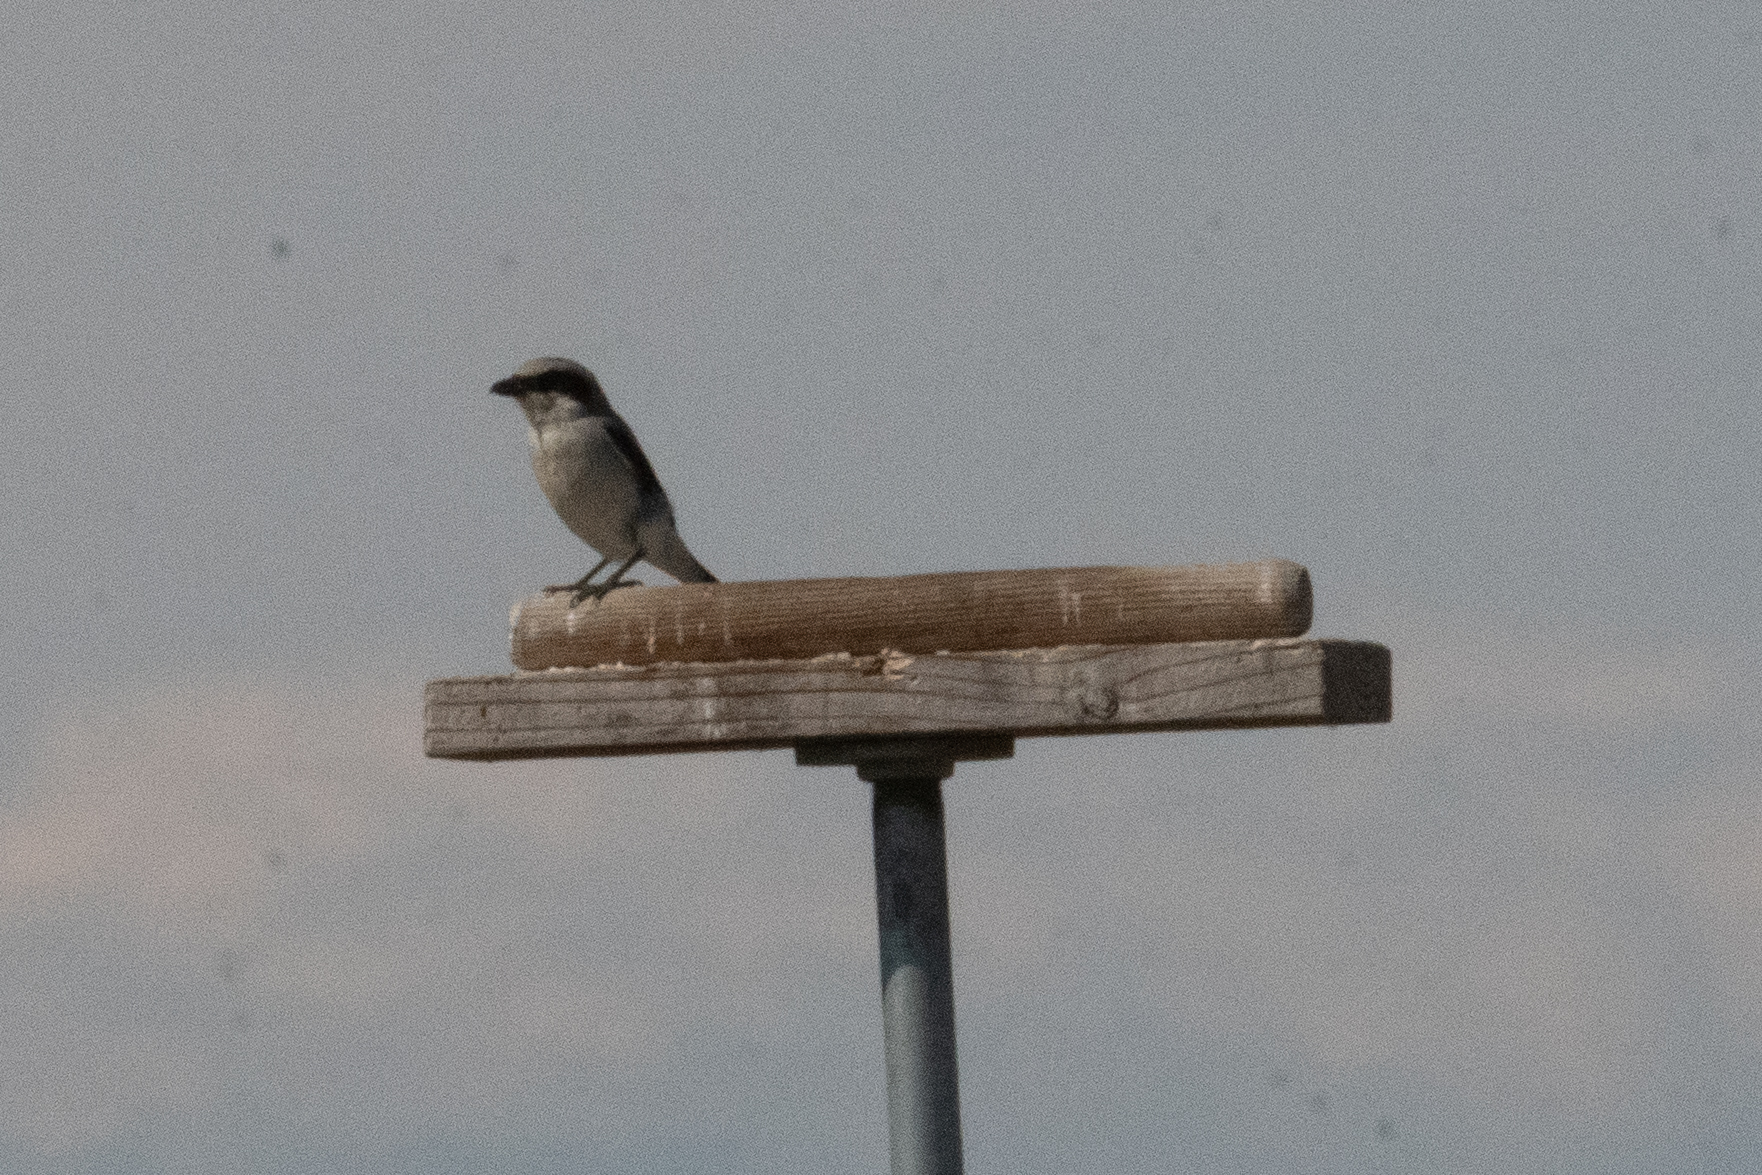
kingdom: Animalia
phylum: Chordata
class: Aves
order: Passeriformes
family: Laniidae
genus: Lanius
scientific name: Lanius ludovicianus
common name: Loggerhead shrike
